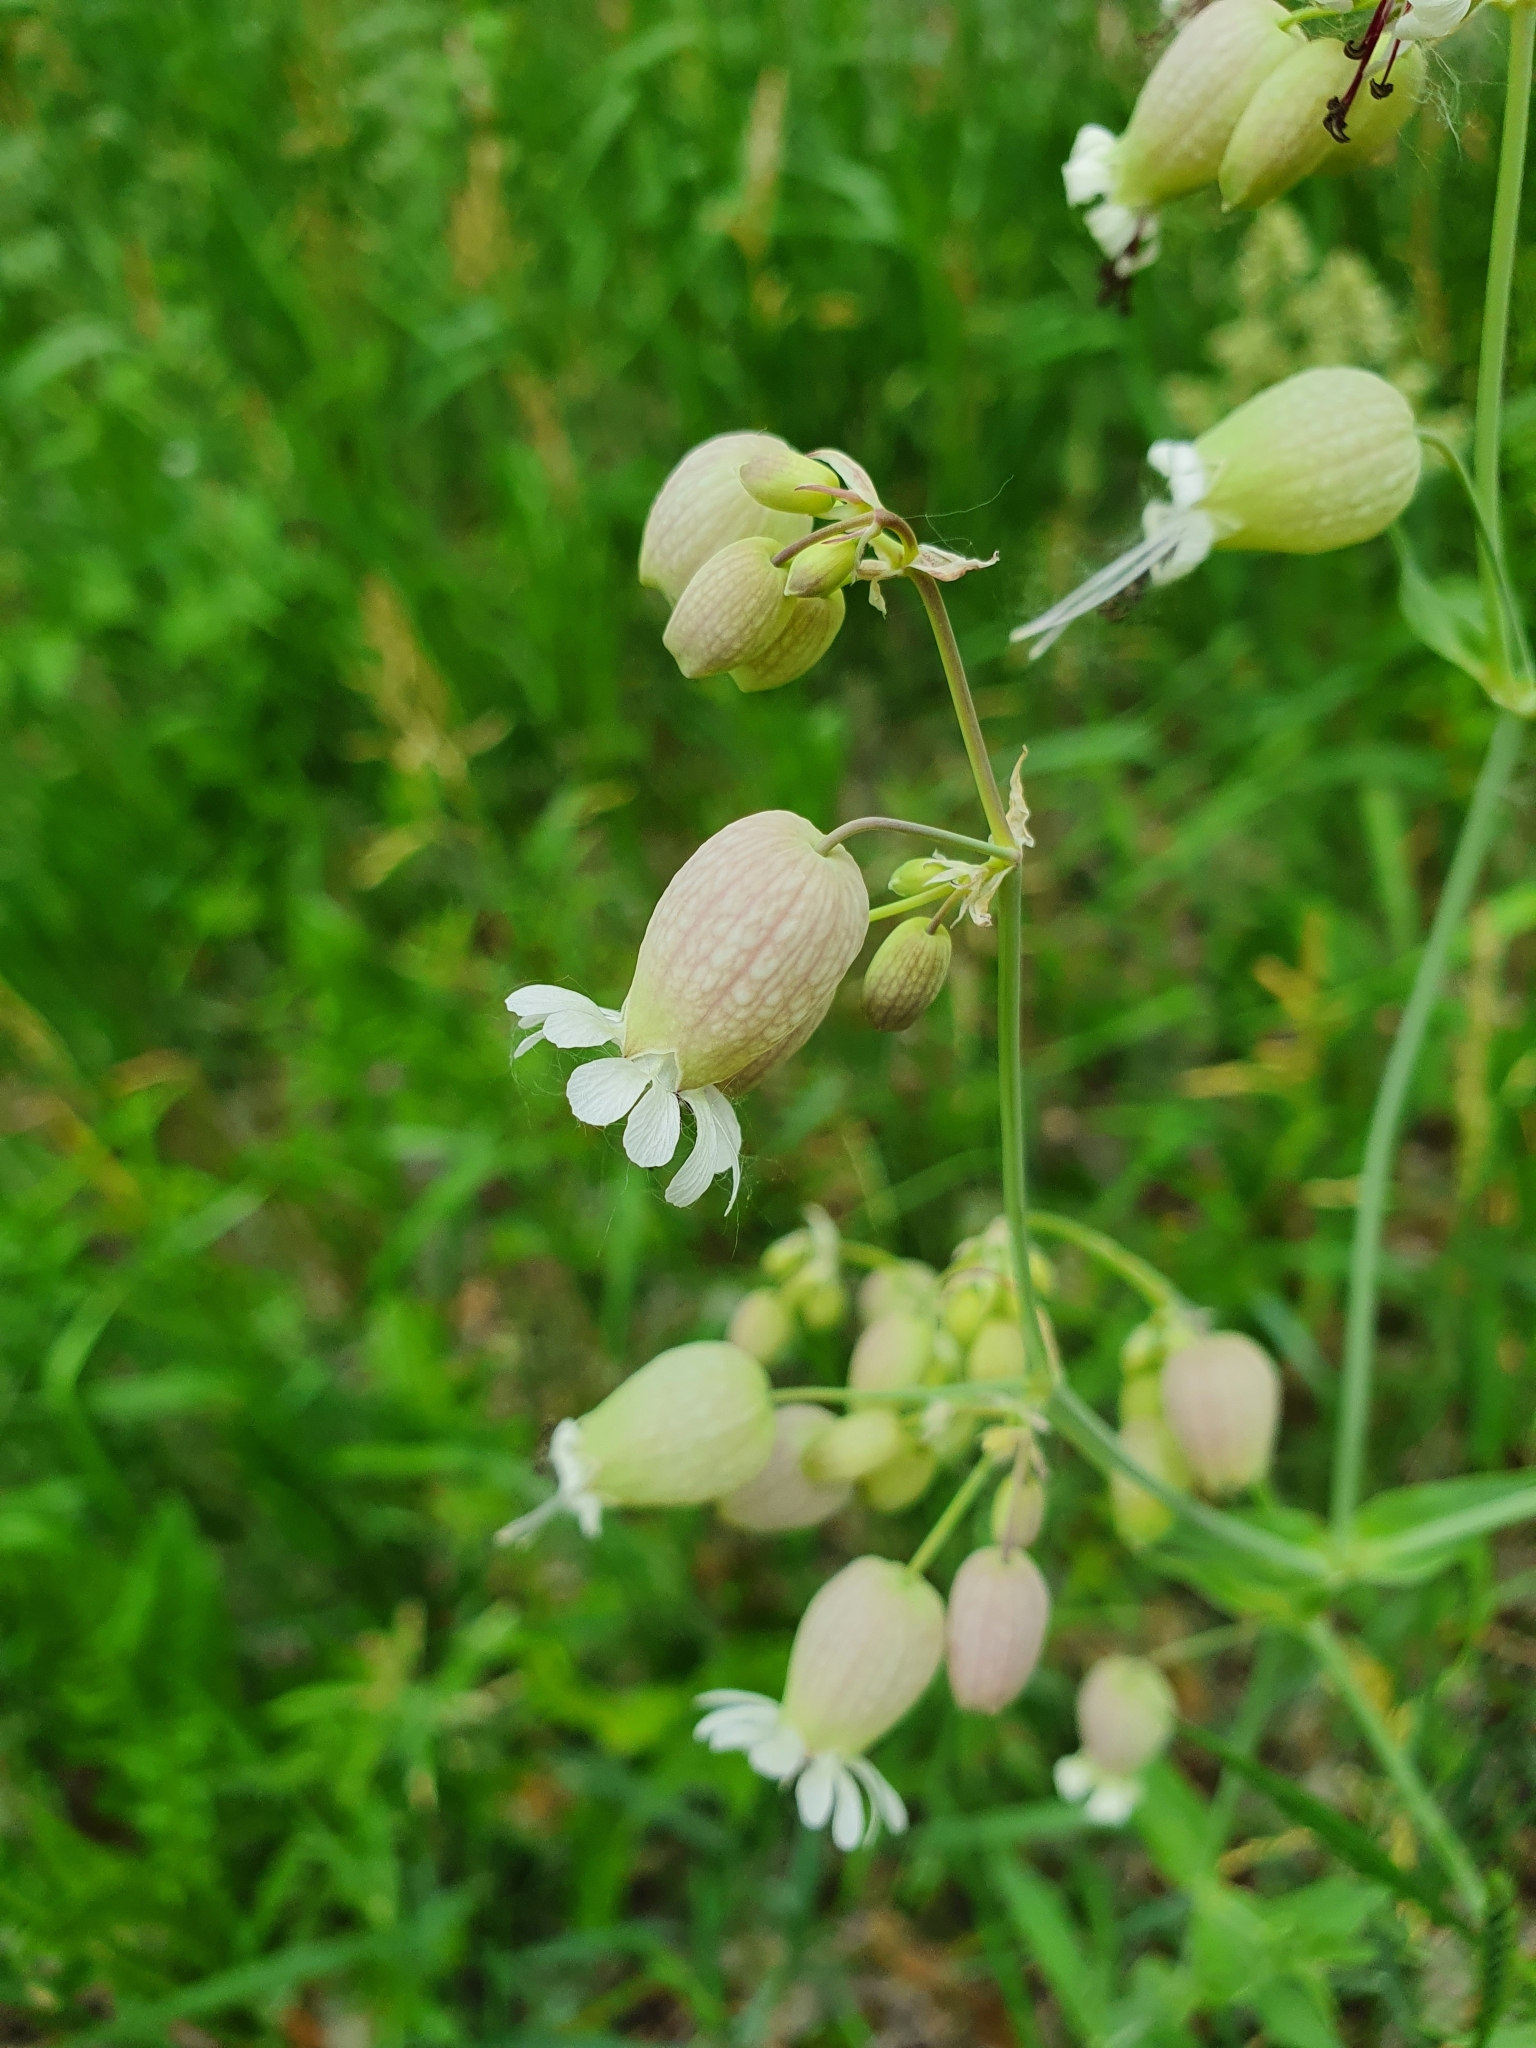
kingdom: Plantae
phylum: Tracheophyta
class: Magnoliopsida
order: Caryophyllales
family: Caryophyllaceae
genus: Silene
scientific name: Silene vulgaris
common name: Bladder campion
